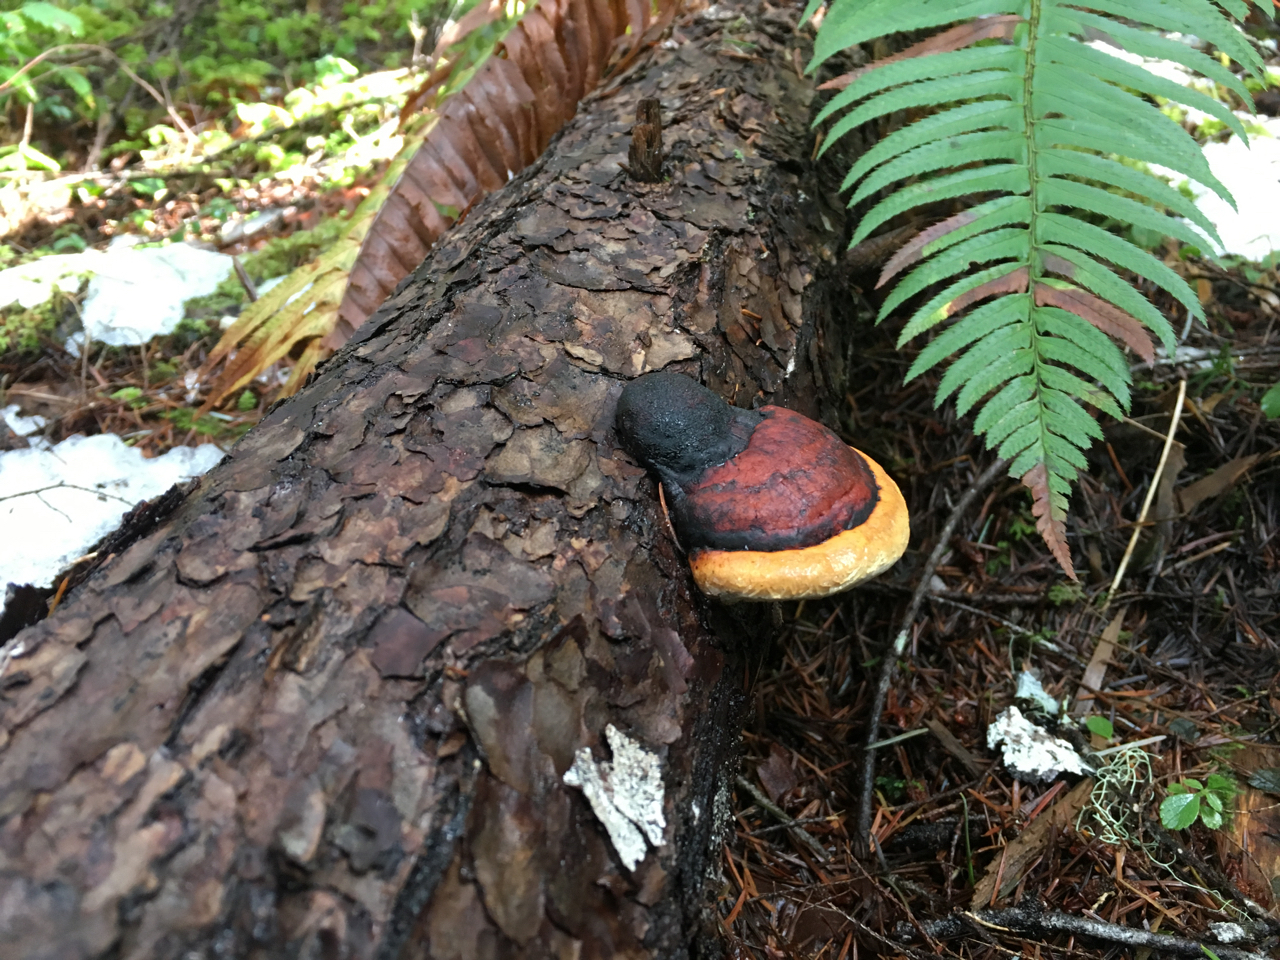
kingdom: Fungi
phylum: Basidiomycota
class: Agaricomycetes
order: Polyporales
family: Fomitopsidaceae
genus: Fomitopsis
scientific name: Fomitopsis mounceae
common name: Northern red belt
